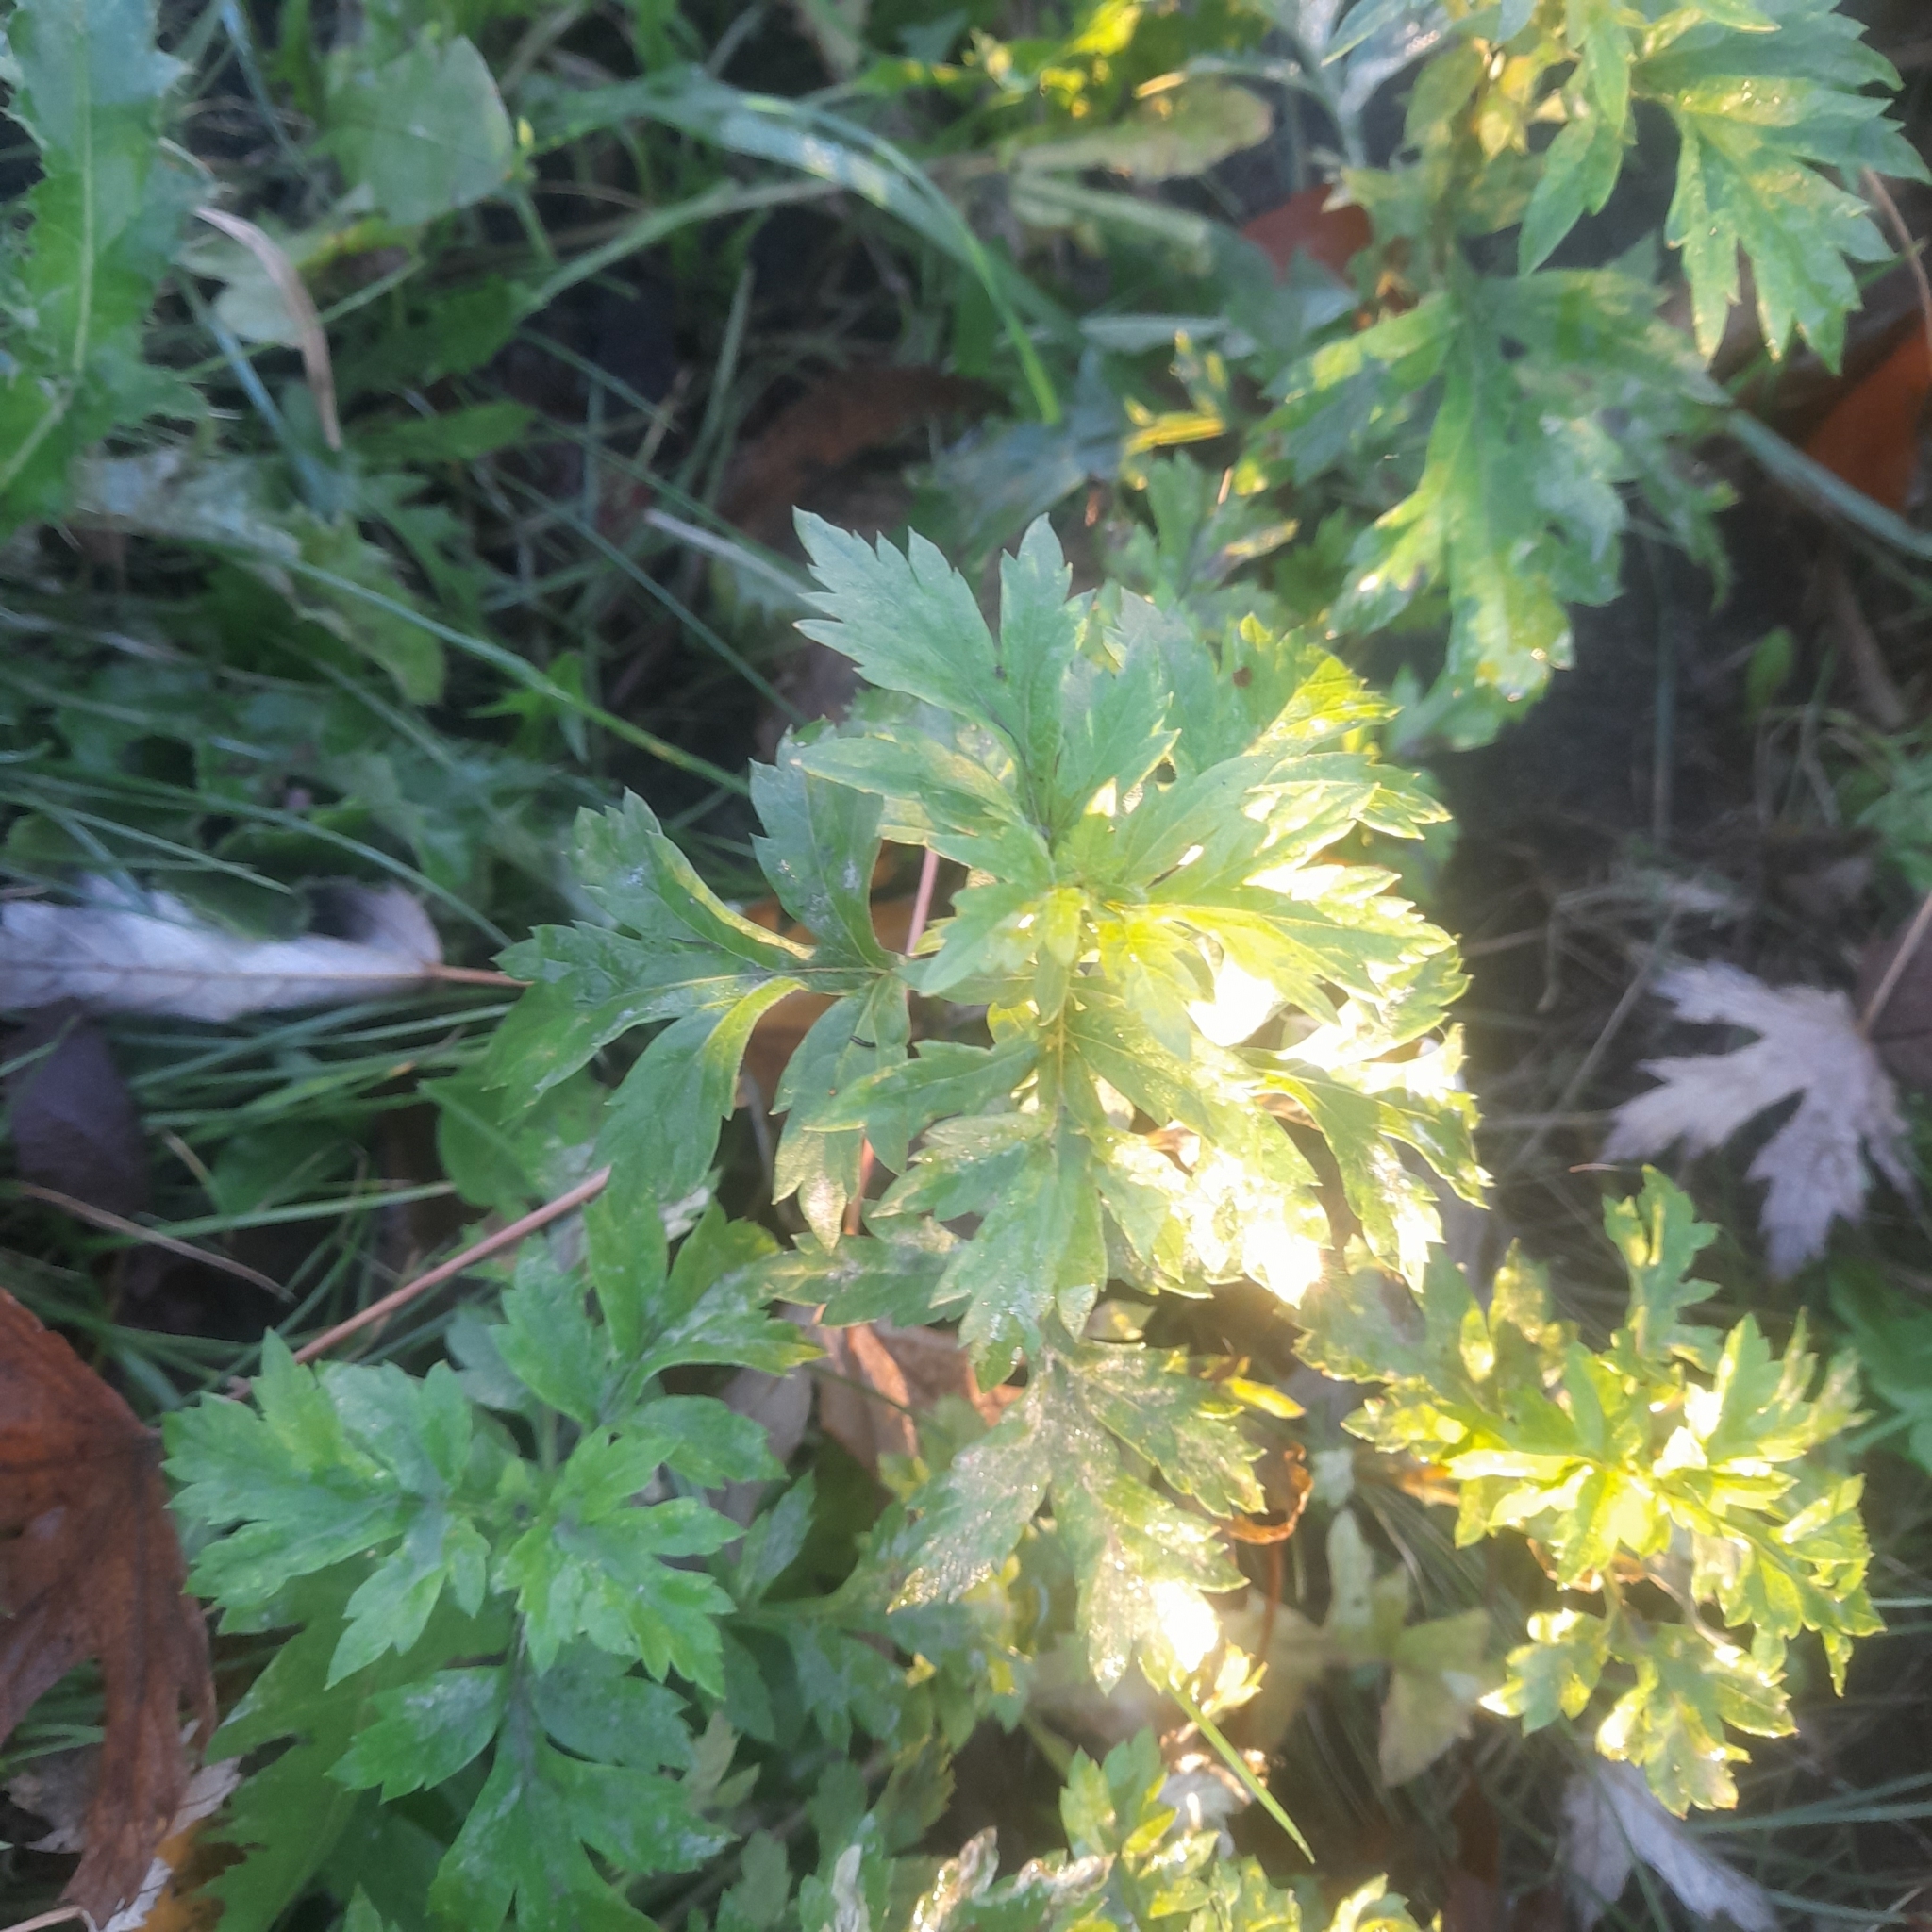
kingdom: Plantae
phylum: Tracheophyta
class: Magnoliopsida
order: Asterales
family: Asteraceae
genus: Artemisia
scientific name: Artemisia vulgaris
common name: Mugwort
